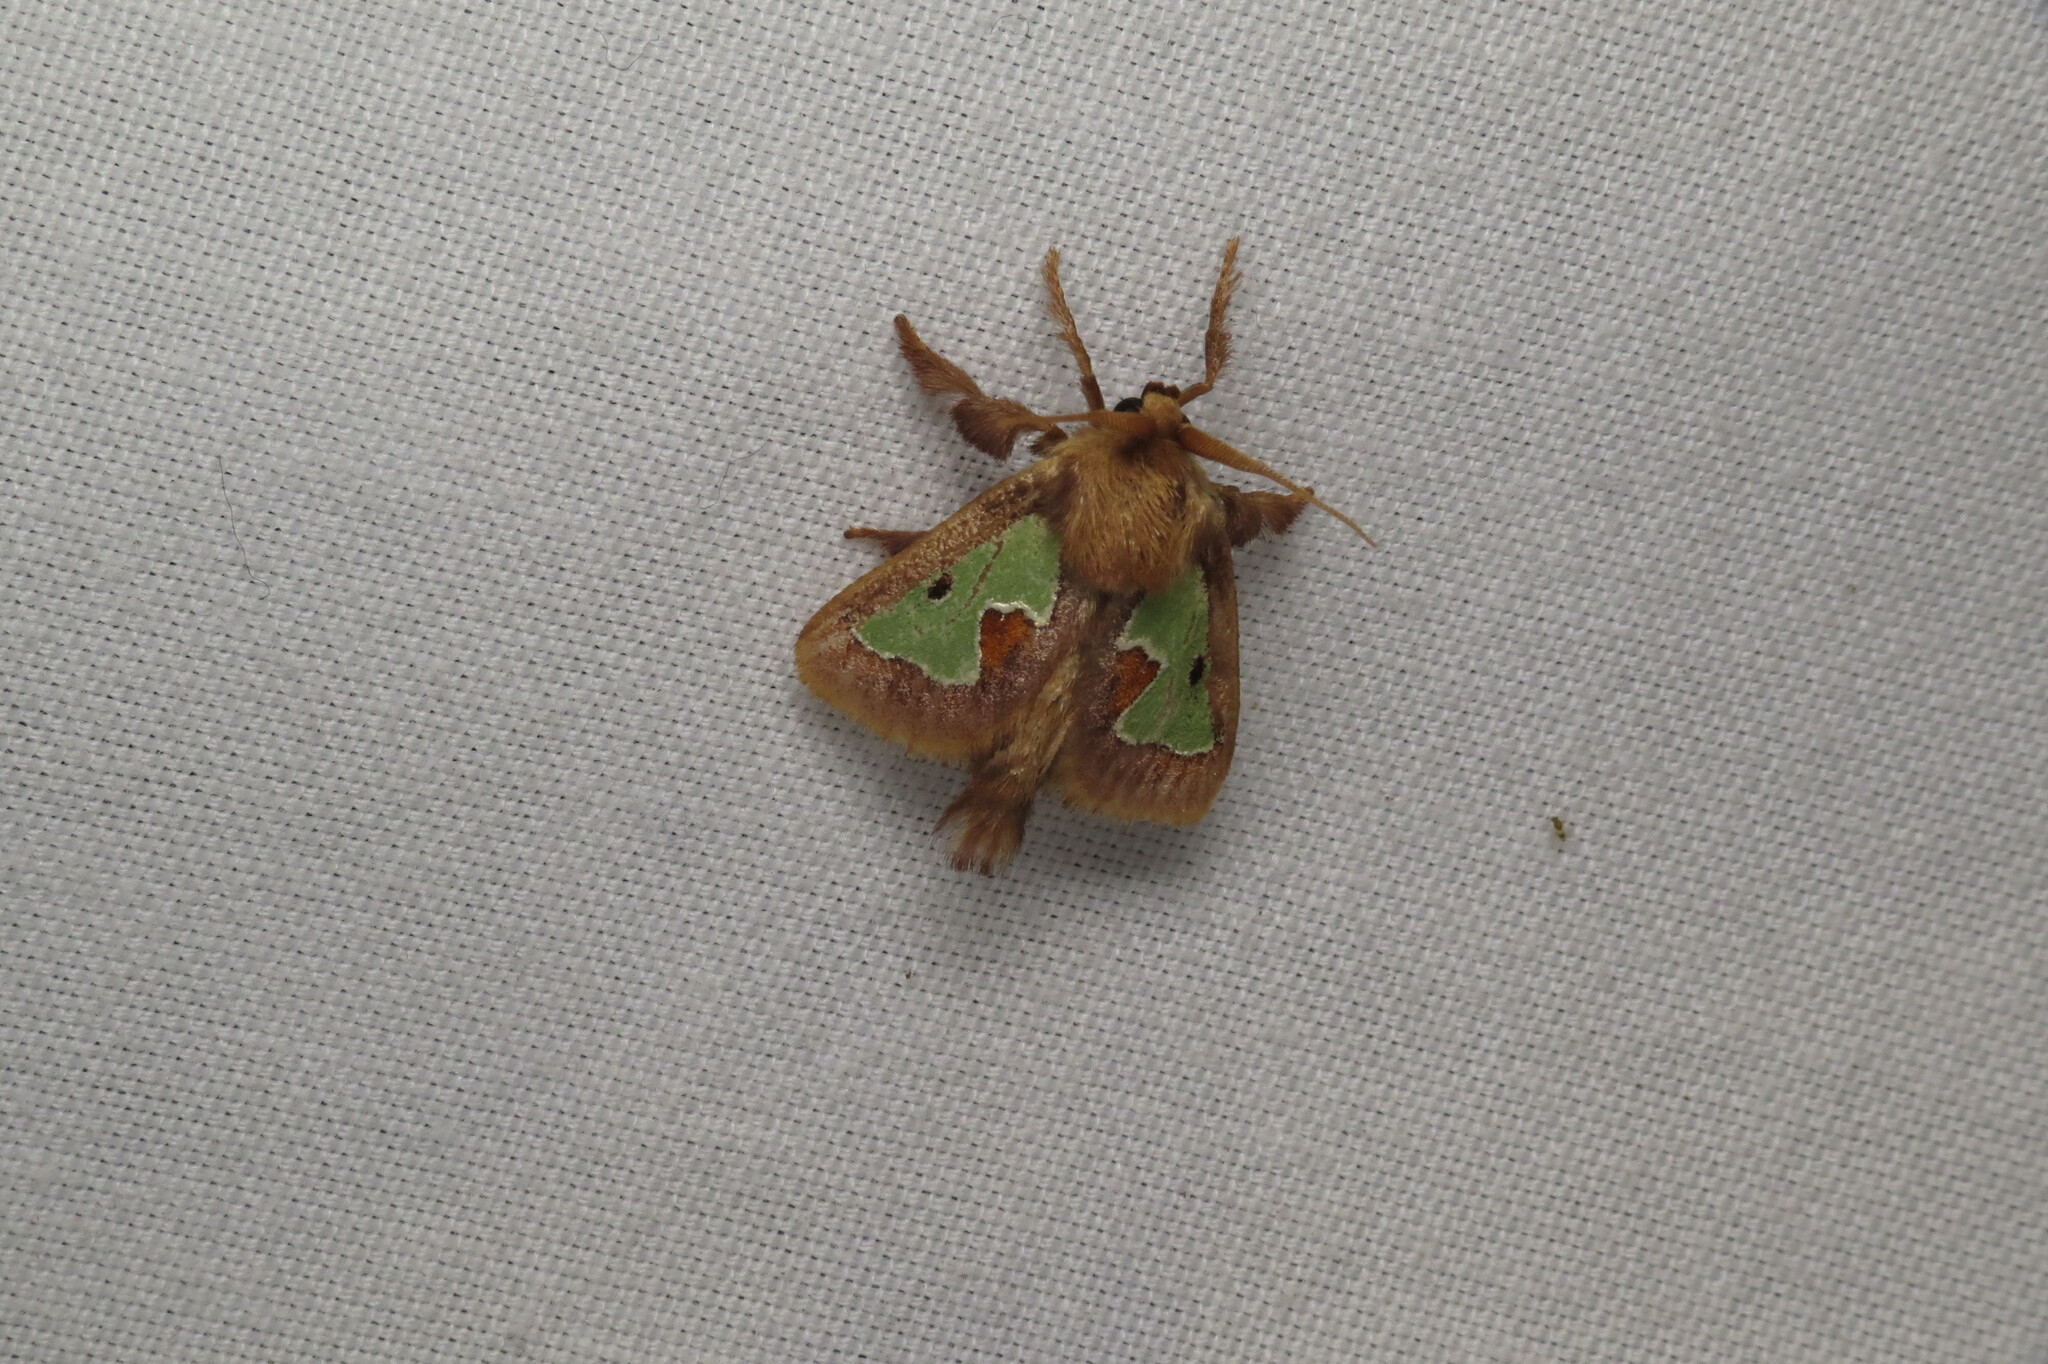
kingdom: Animalia
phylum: Arthropoda
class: Insecta
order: Lepidoptera
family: Limacodidae
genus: Euclea
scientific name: Euclea delphinii
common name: Spiny oak-slug moth
